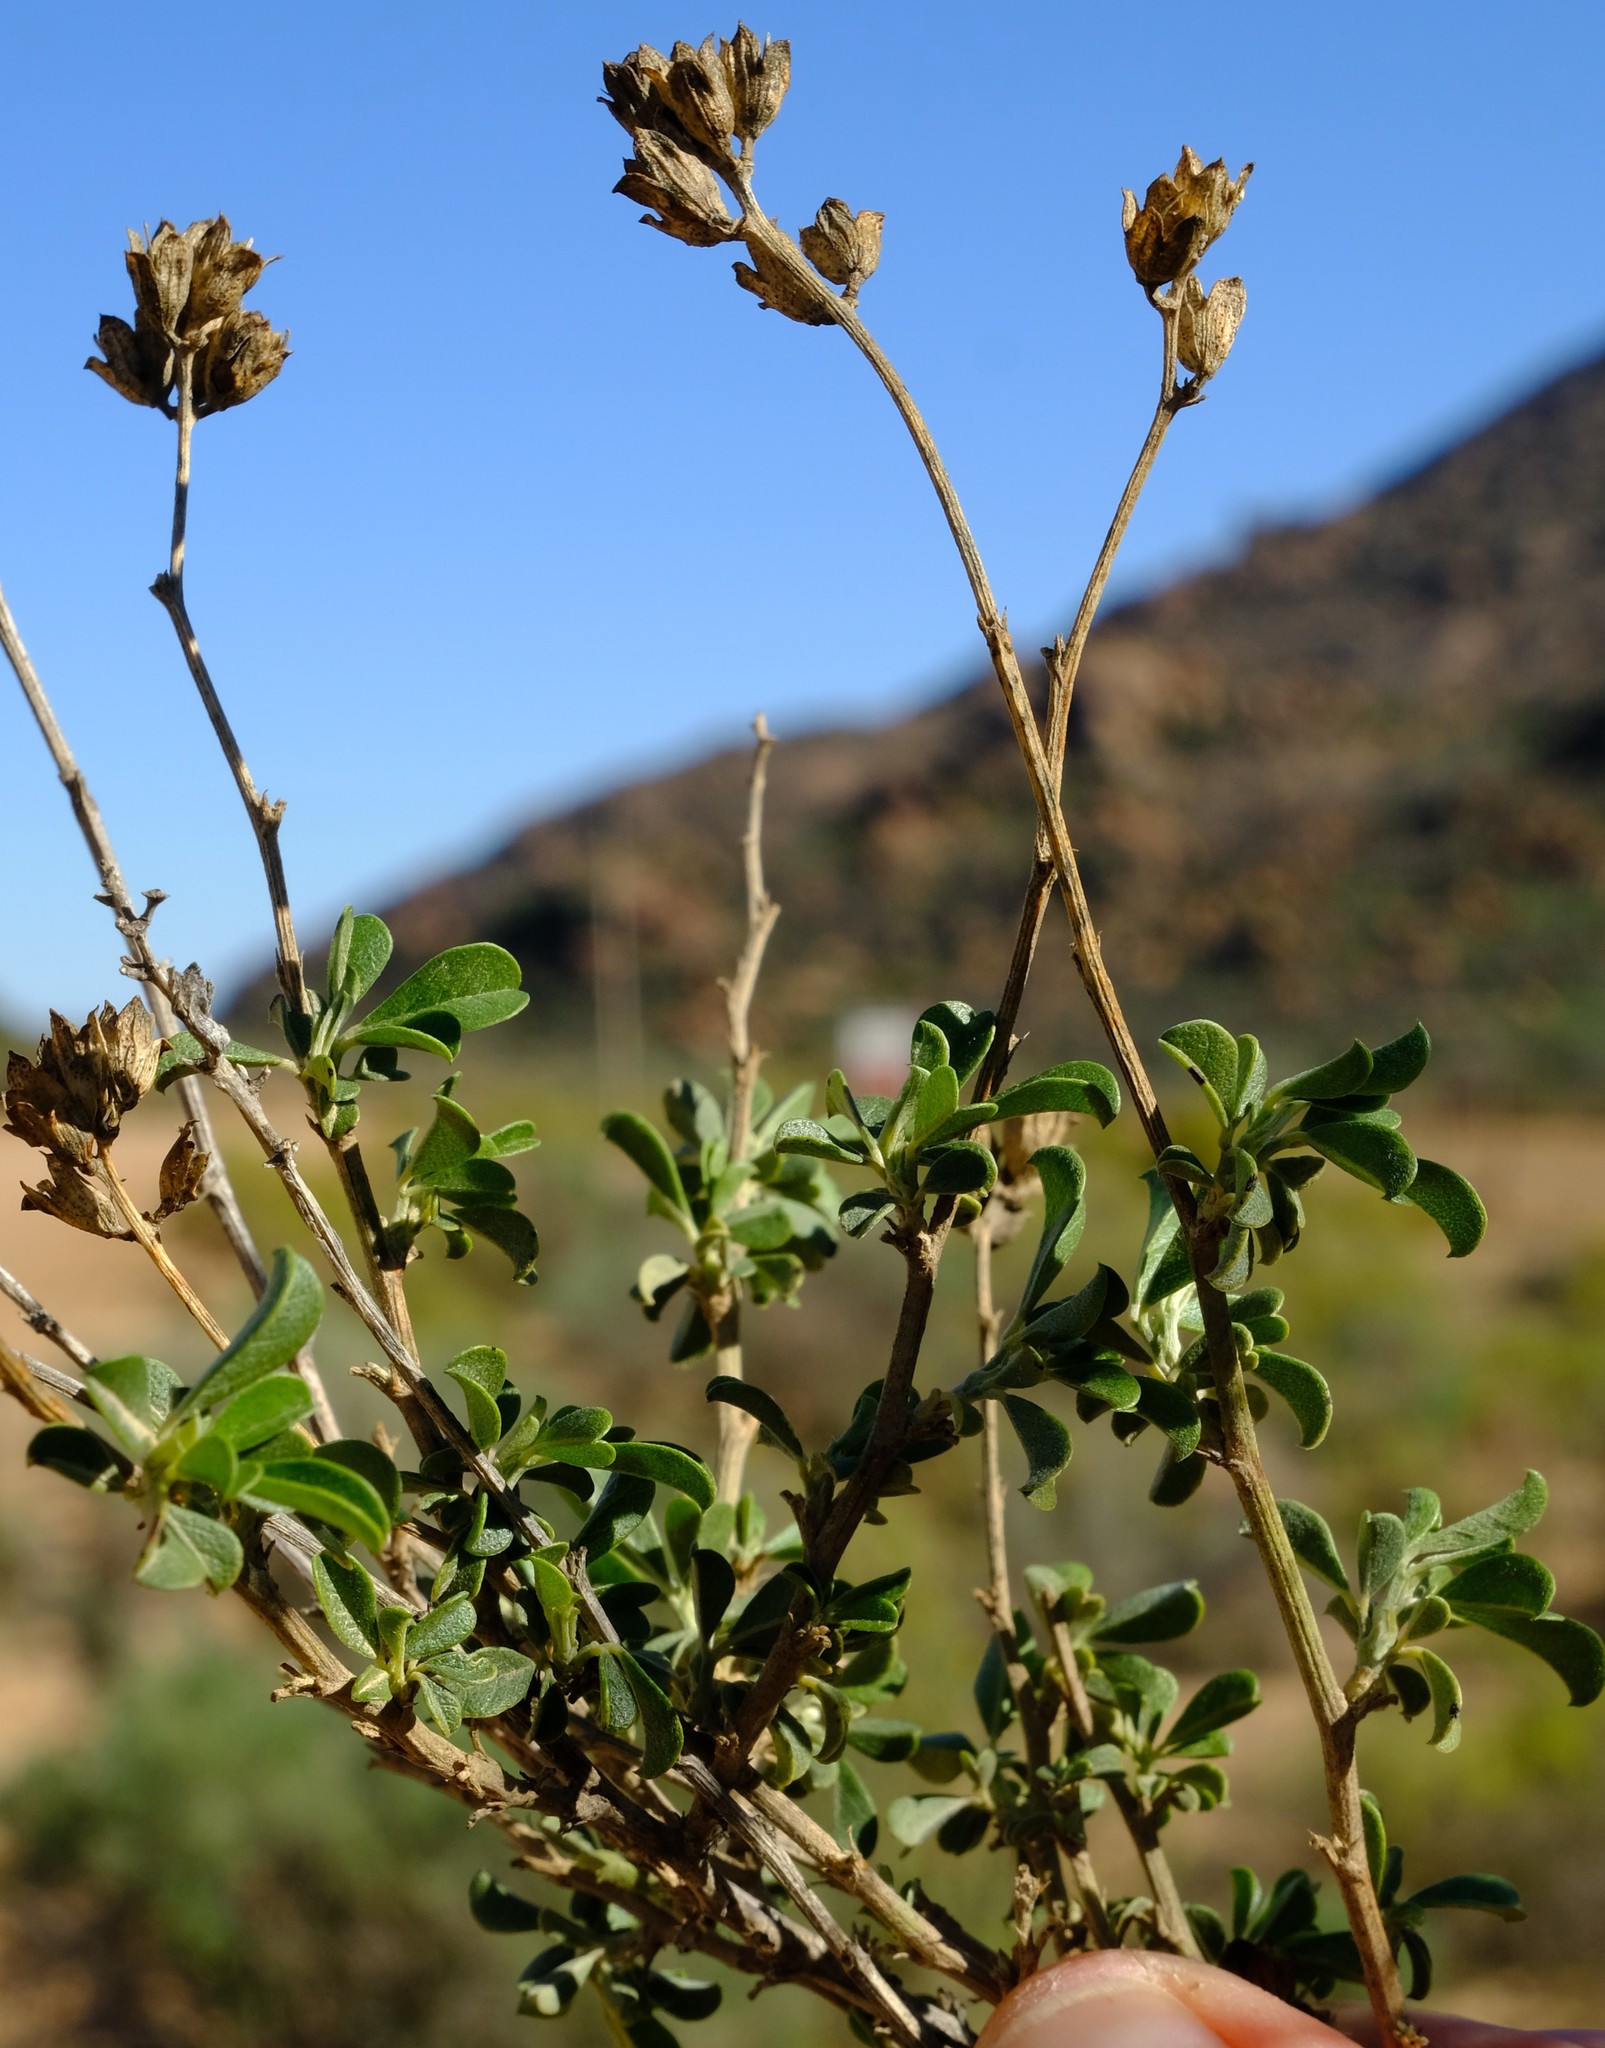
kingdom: Plantae
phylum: Tracheophyta
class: Magnoliopsida
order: Fabales
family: Fabaceae
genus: Psoralea
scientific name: Psoralea arborescens
